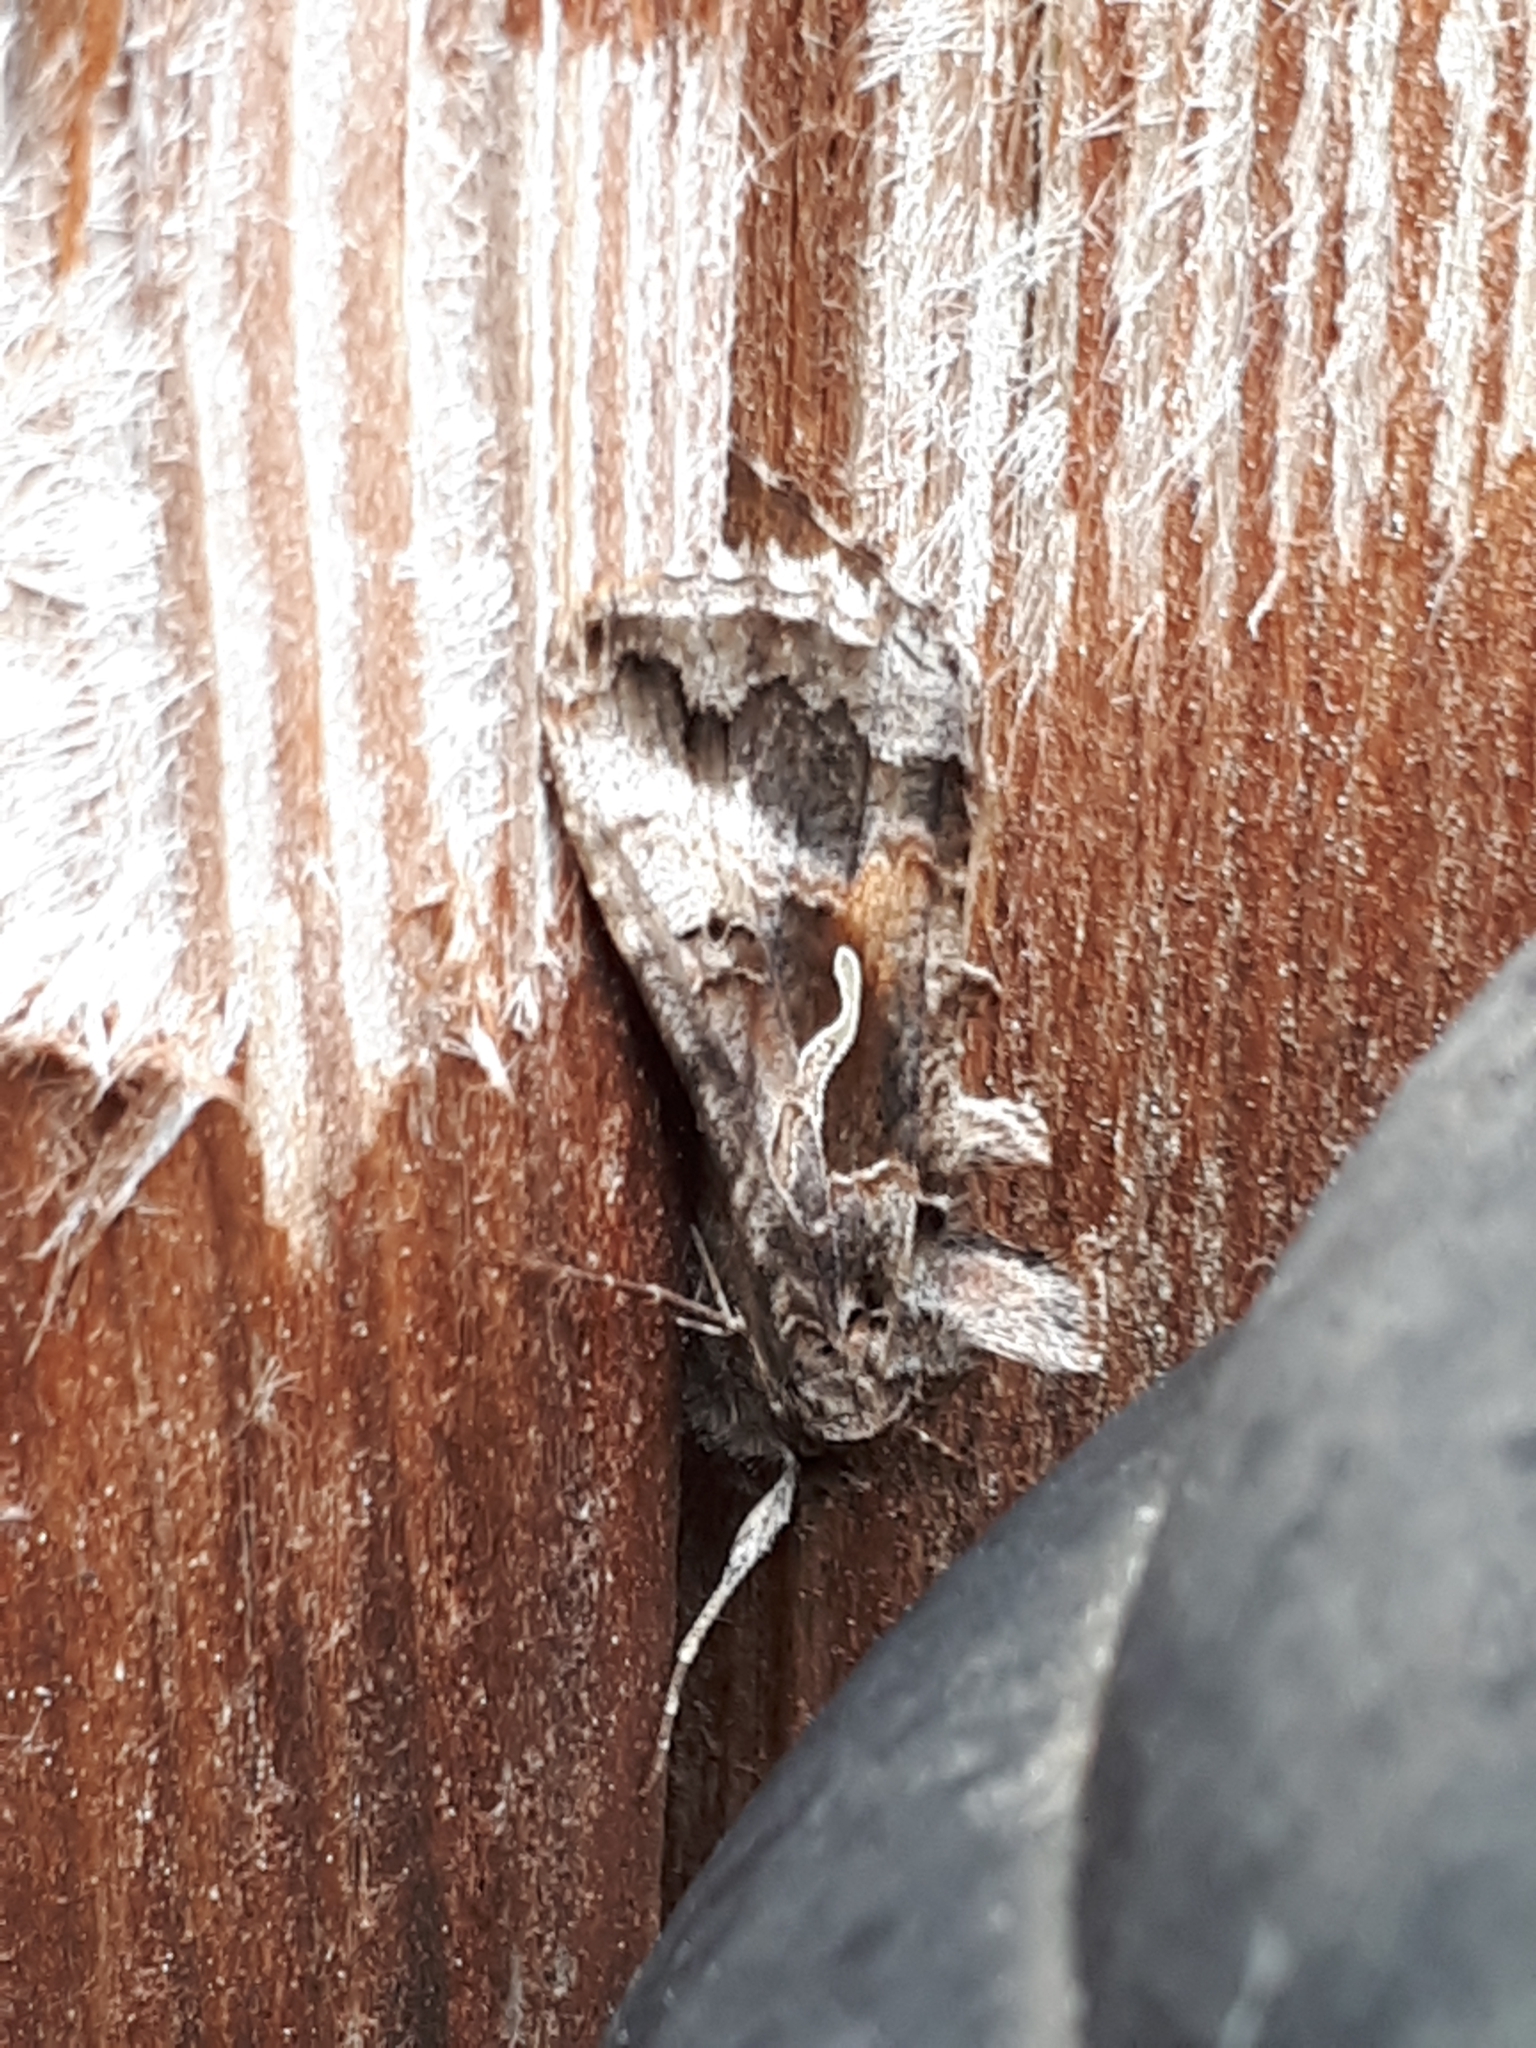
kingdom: Animalia
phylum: Arthropoda
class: Insecta
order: Lepidoptera
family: Noctuidae
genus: Autographa
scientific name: Autographa gamma
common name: Silver y
